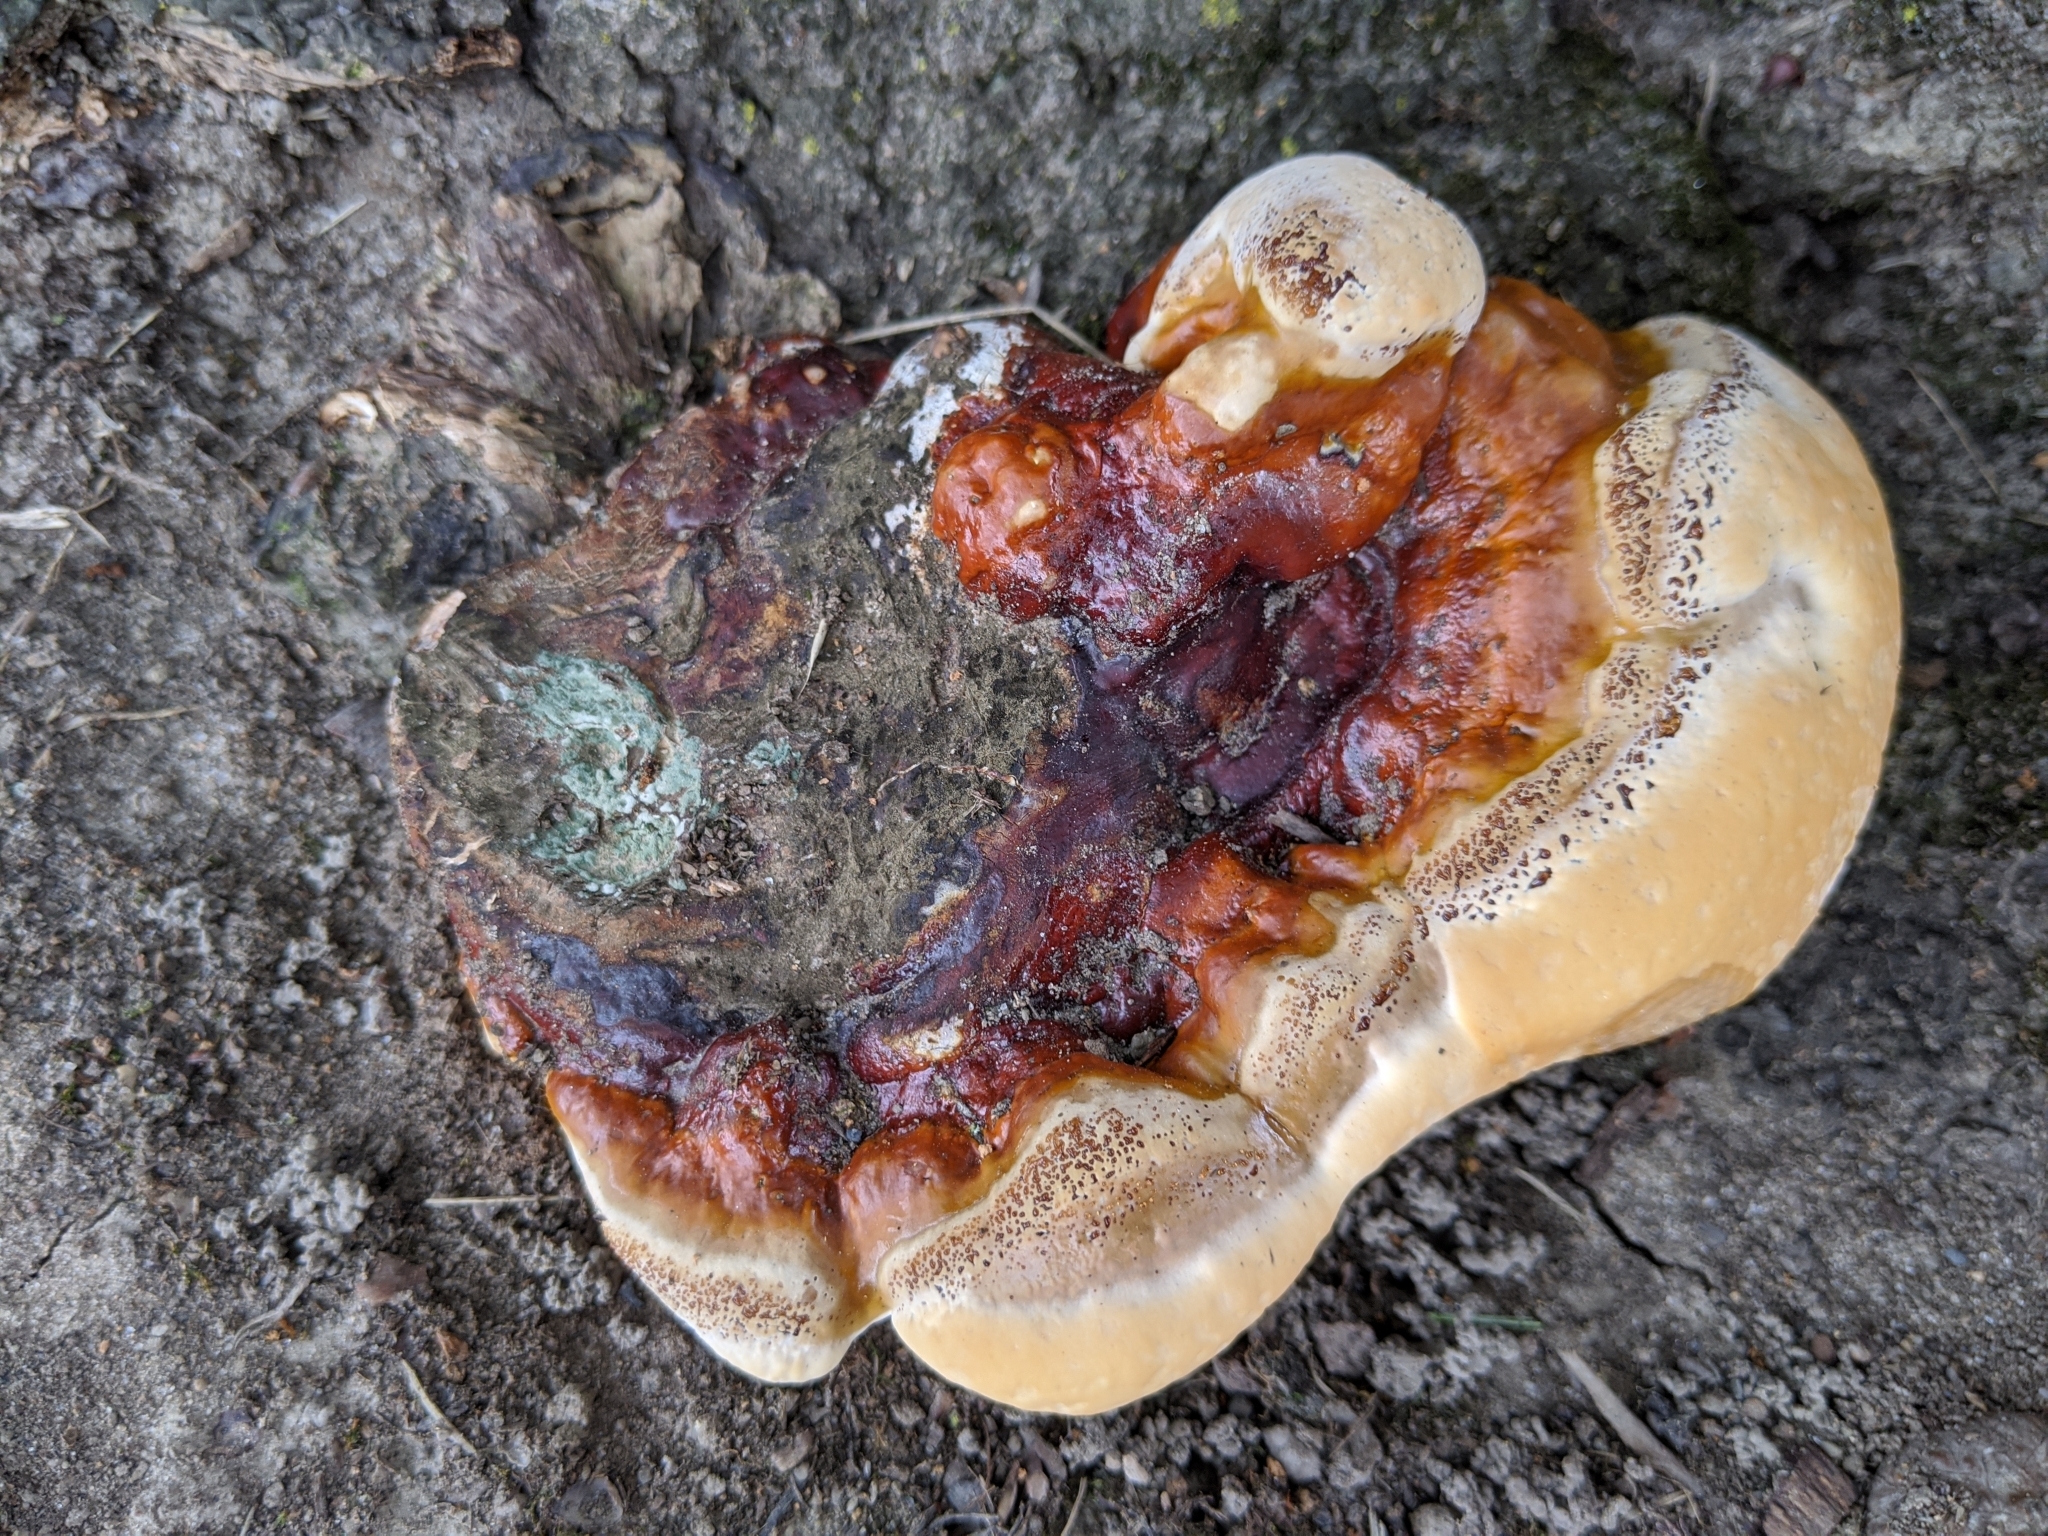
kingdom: Fungi
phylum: Basidiomycota
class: Agaricomycetes
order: Polyporales
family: Polyporaceae
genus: Ganoderma
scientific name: Ganoderma resinaceum
